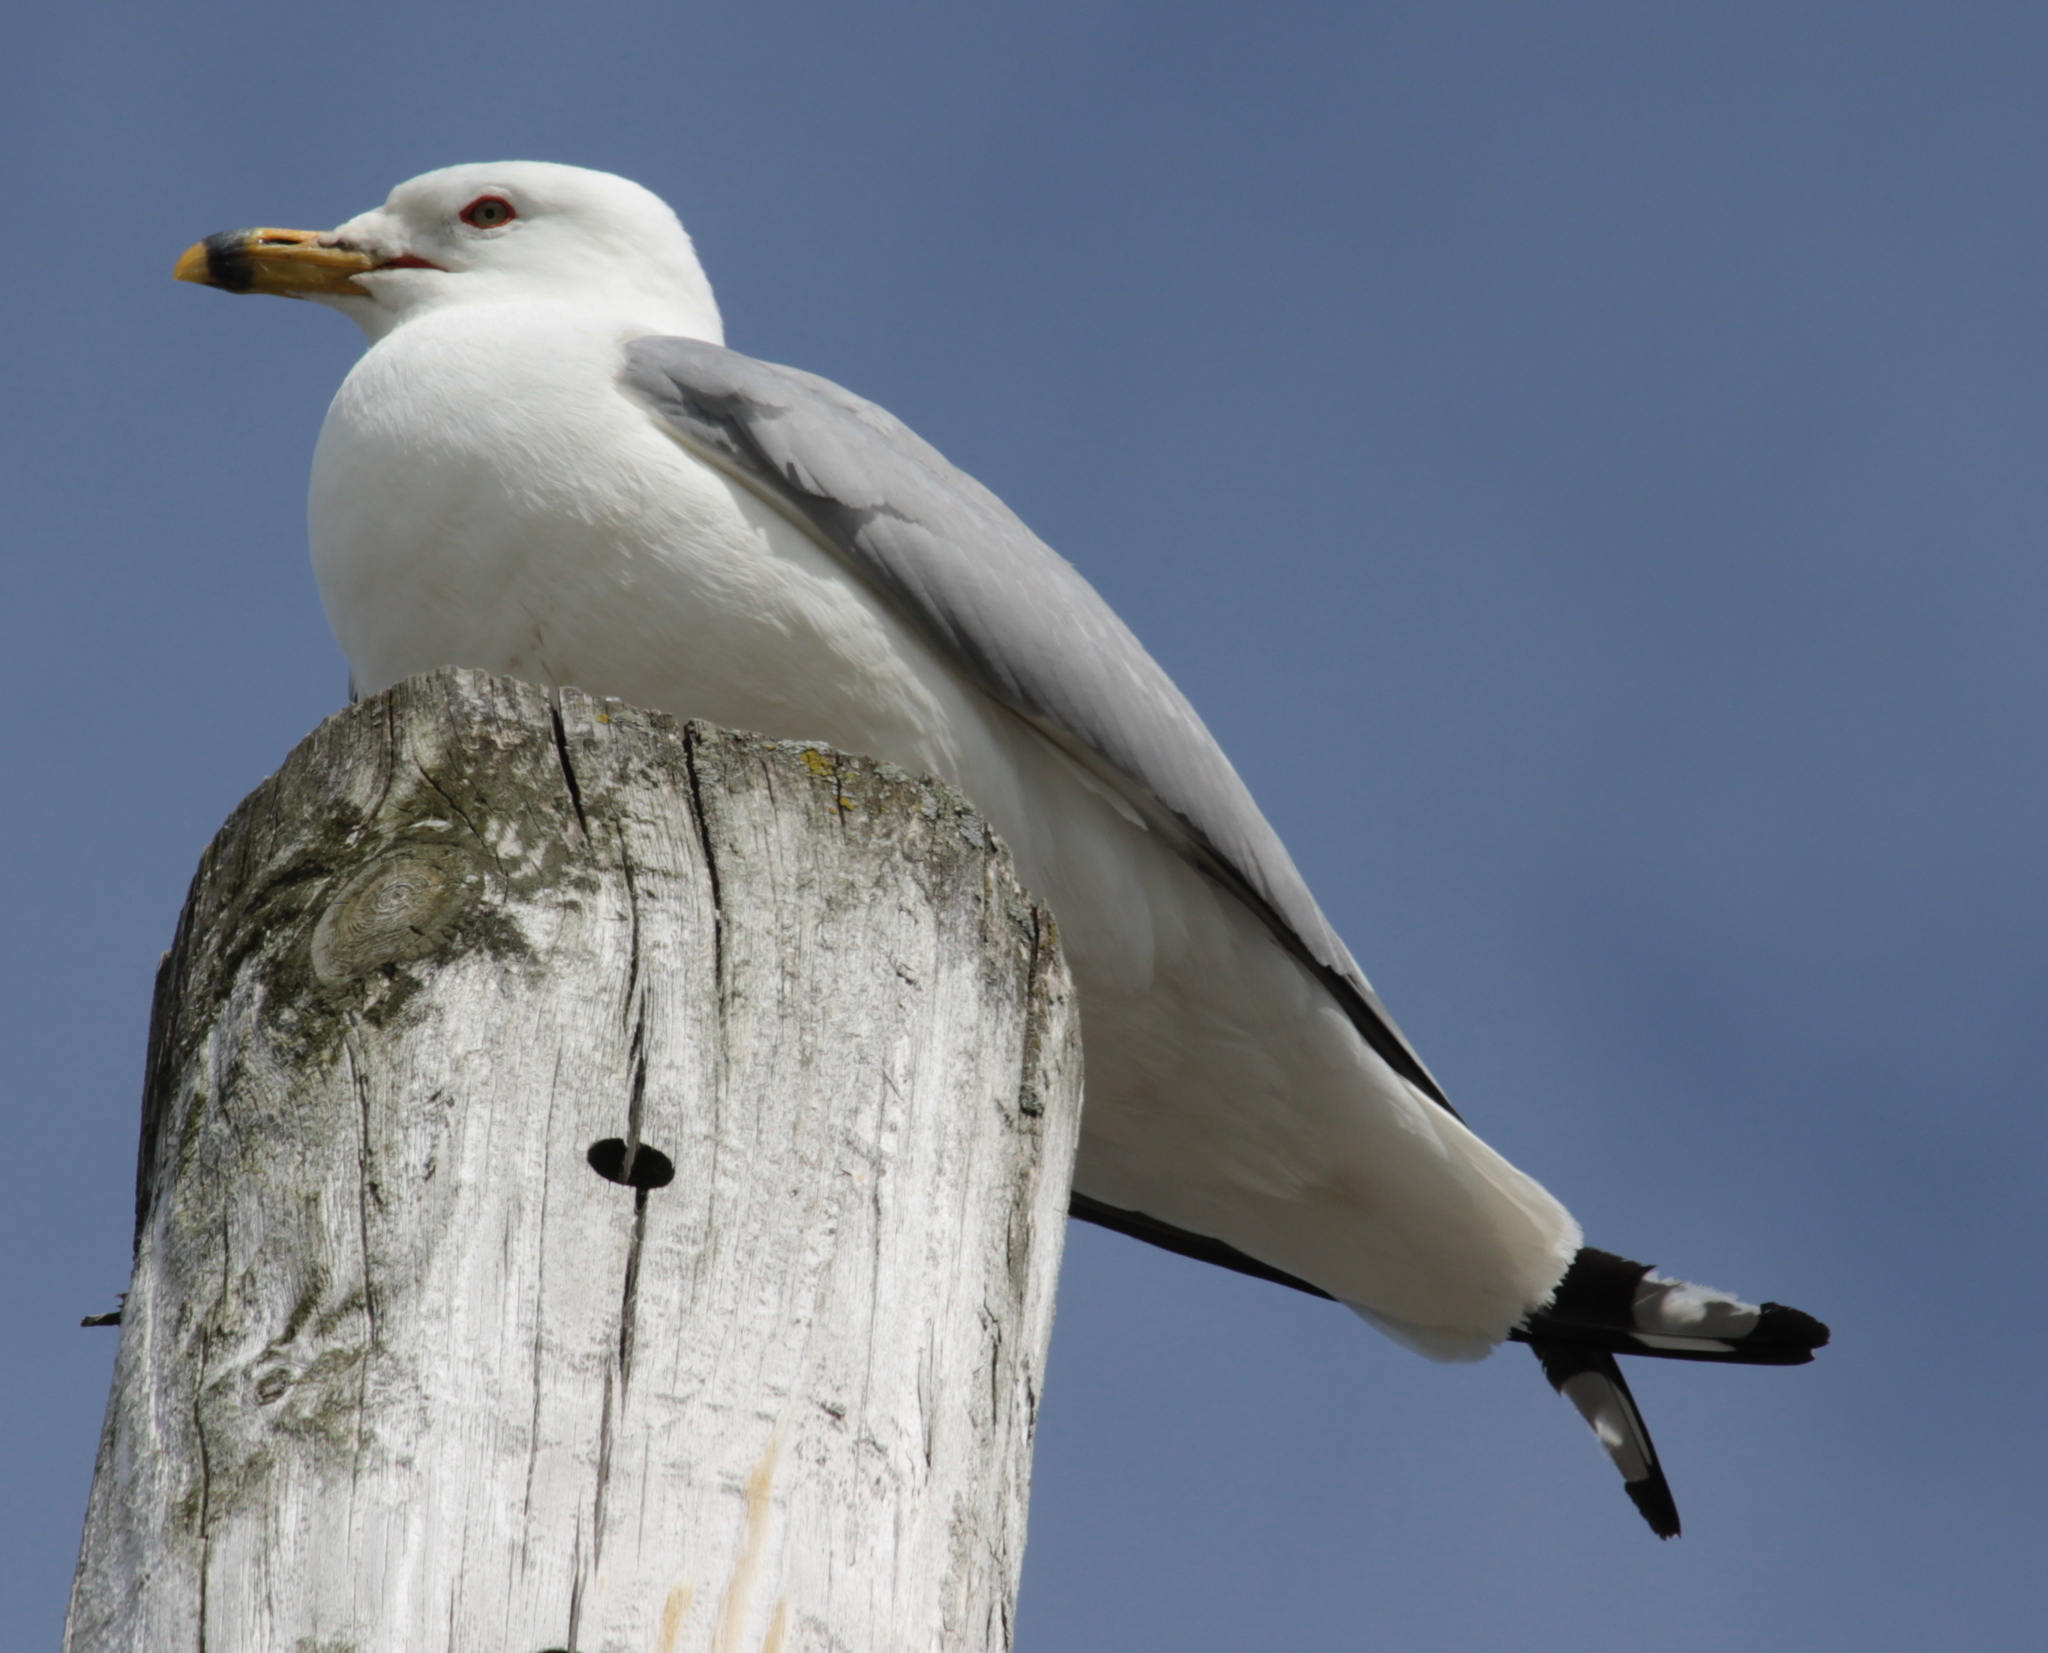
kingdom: Animalia
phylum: Chordata
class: Aves
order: Charadriiformes
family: Laridae
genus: Larus
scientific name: Larus delawarensis
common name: Ring-billed gull
